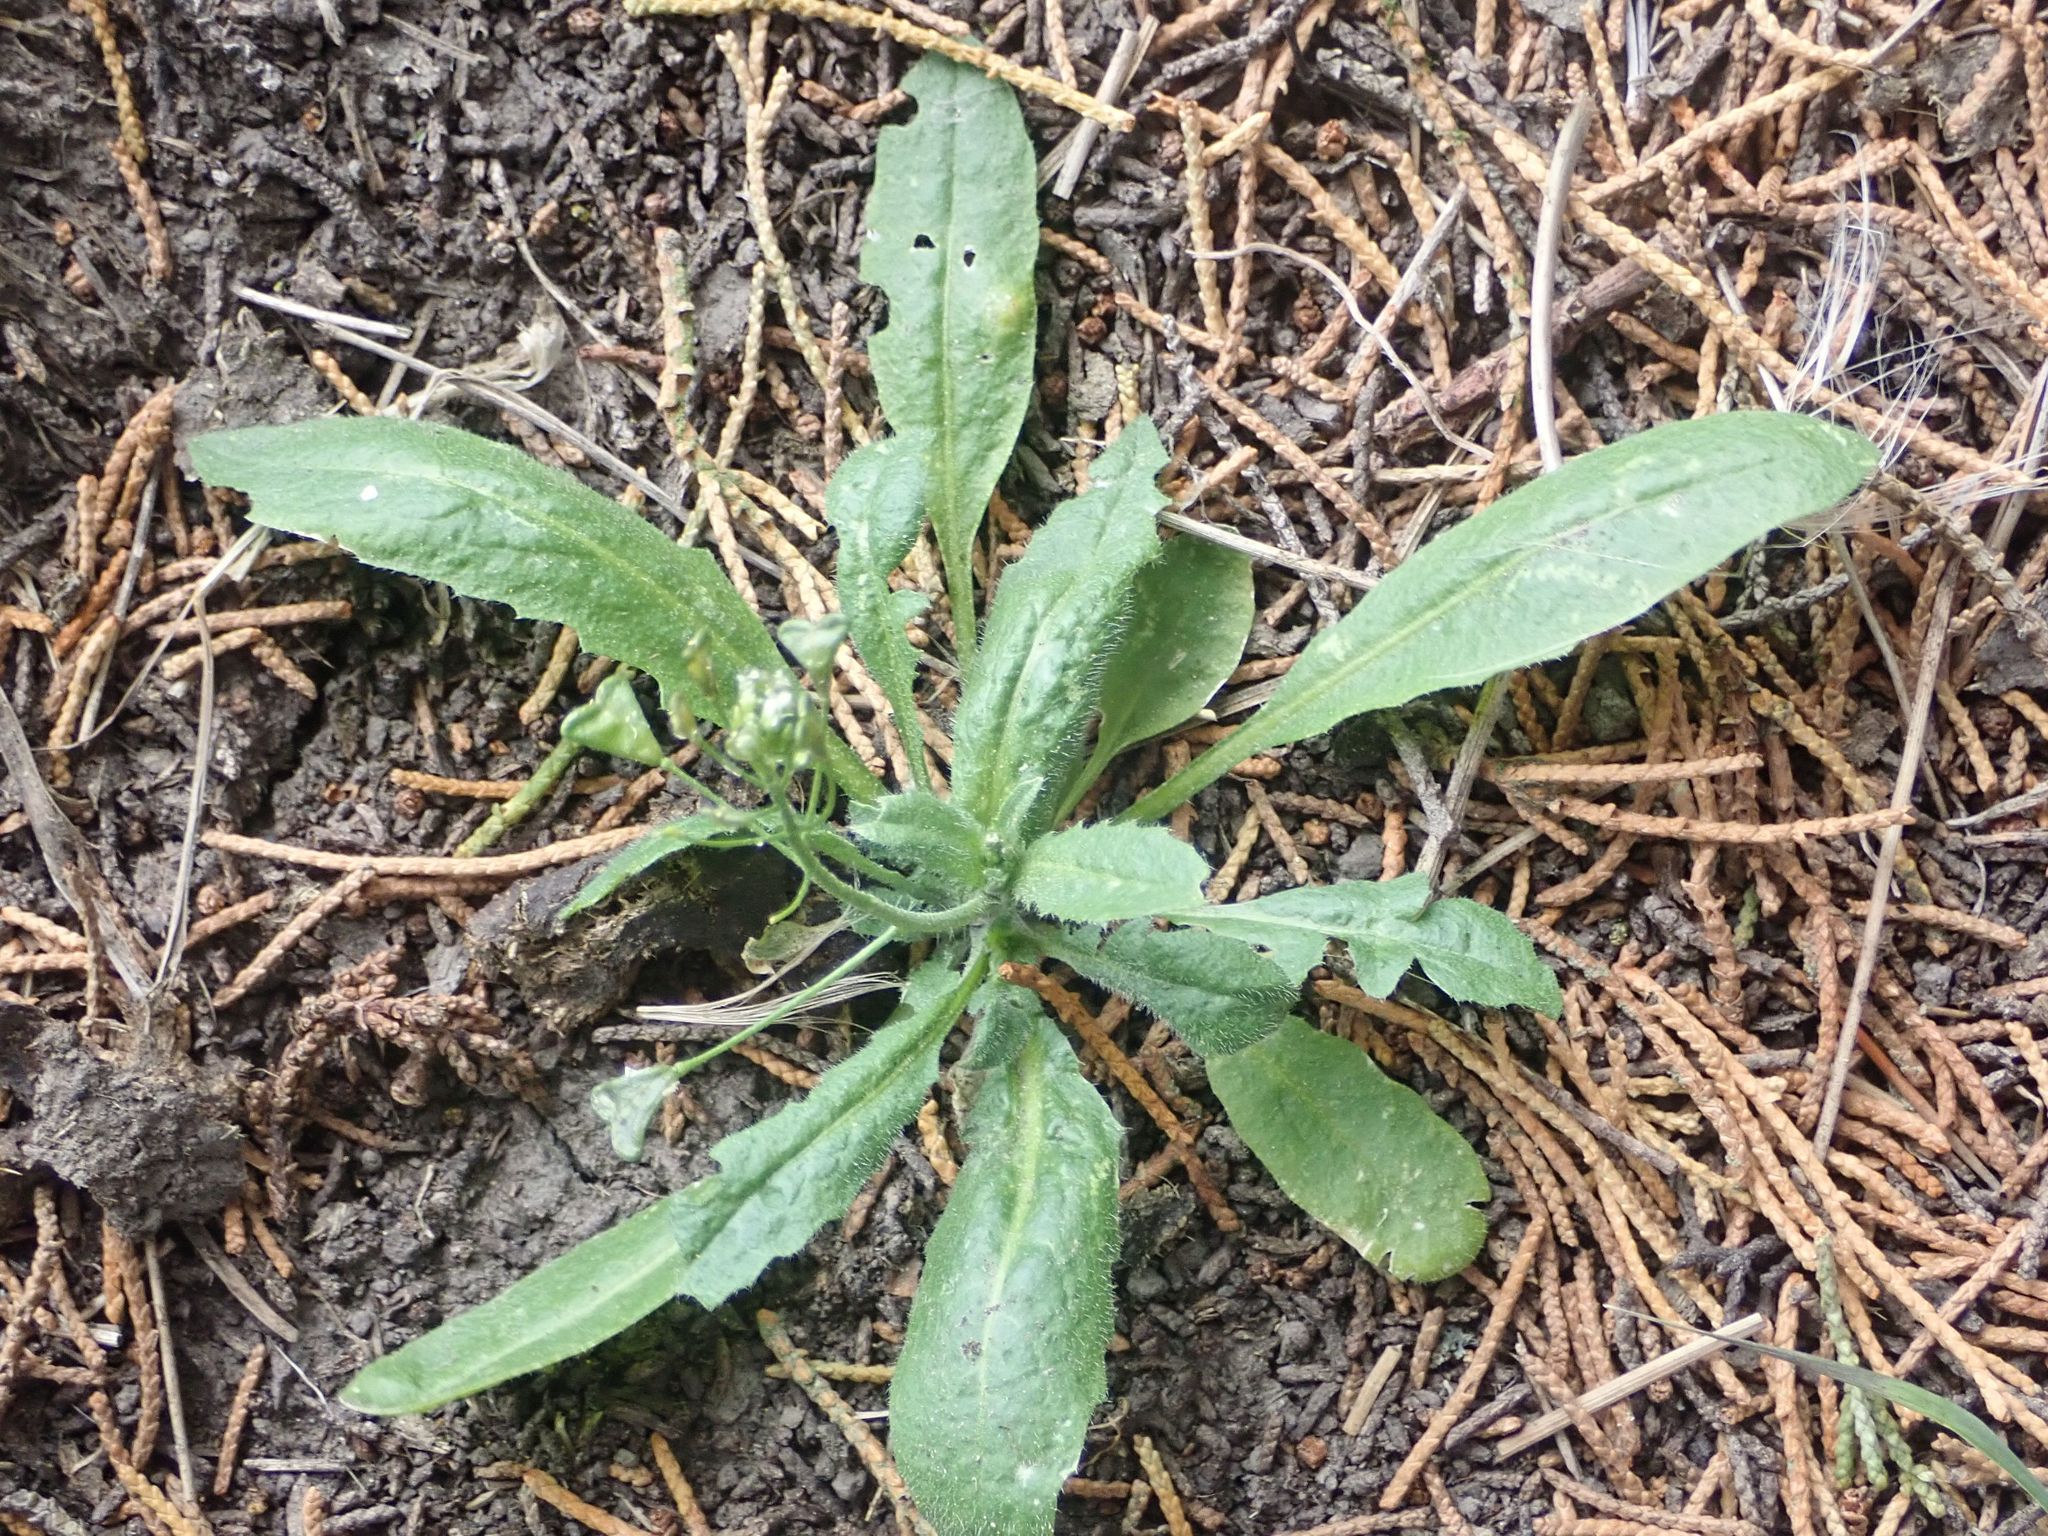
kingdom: Plantae
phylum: Tracheophyta
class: Magnoliopsida
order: Brassicales
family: Brassicaceae
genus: Capsella
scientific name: Capsella bursa-pastoris
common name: Shepherd's purse
